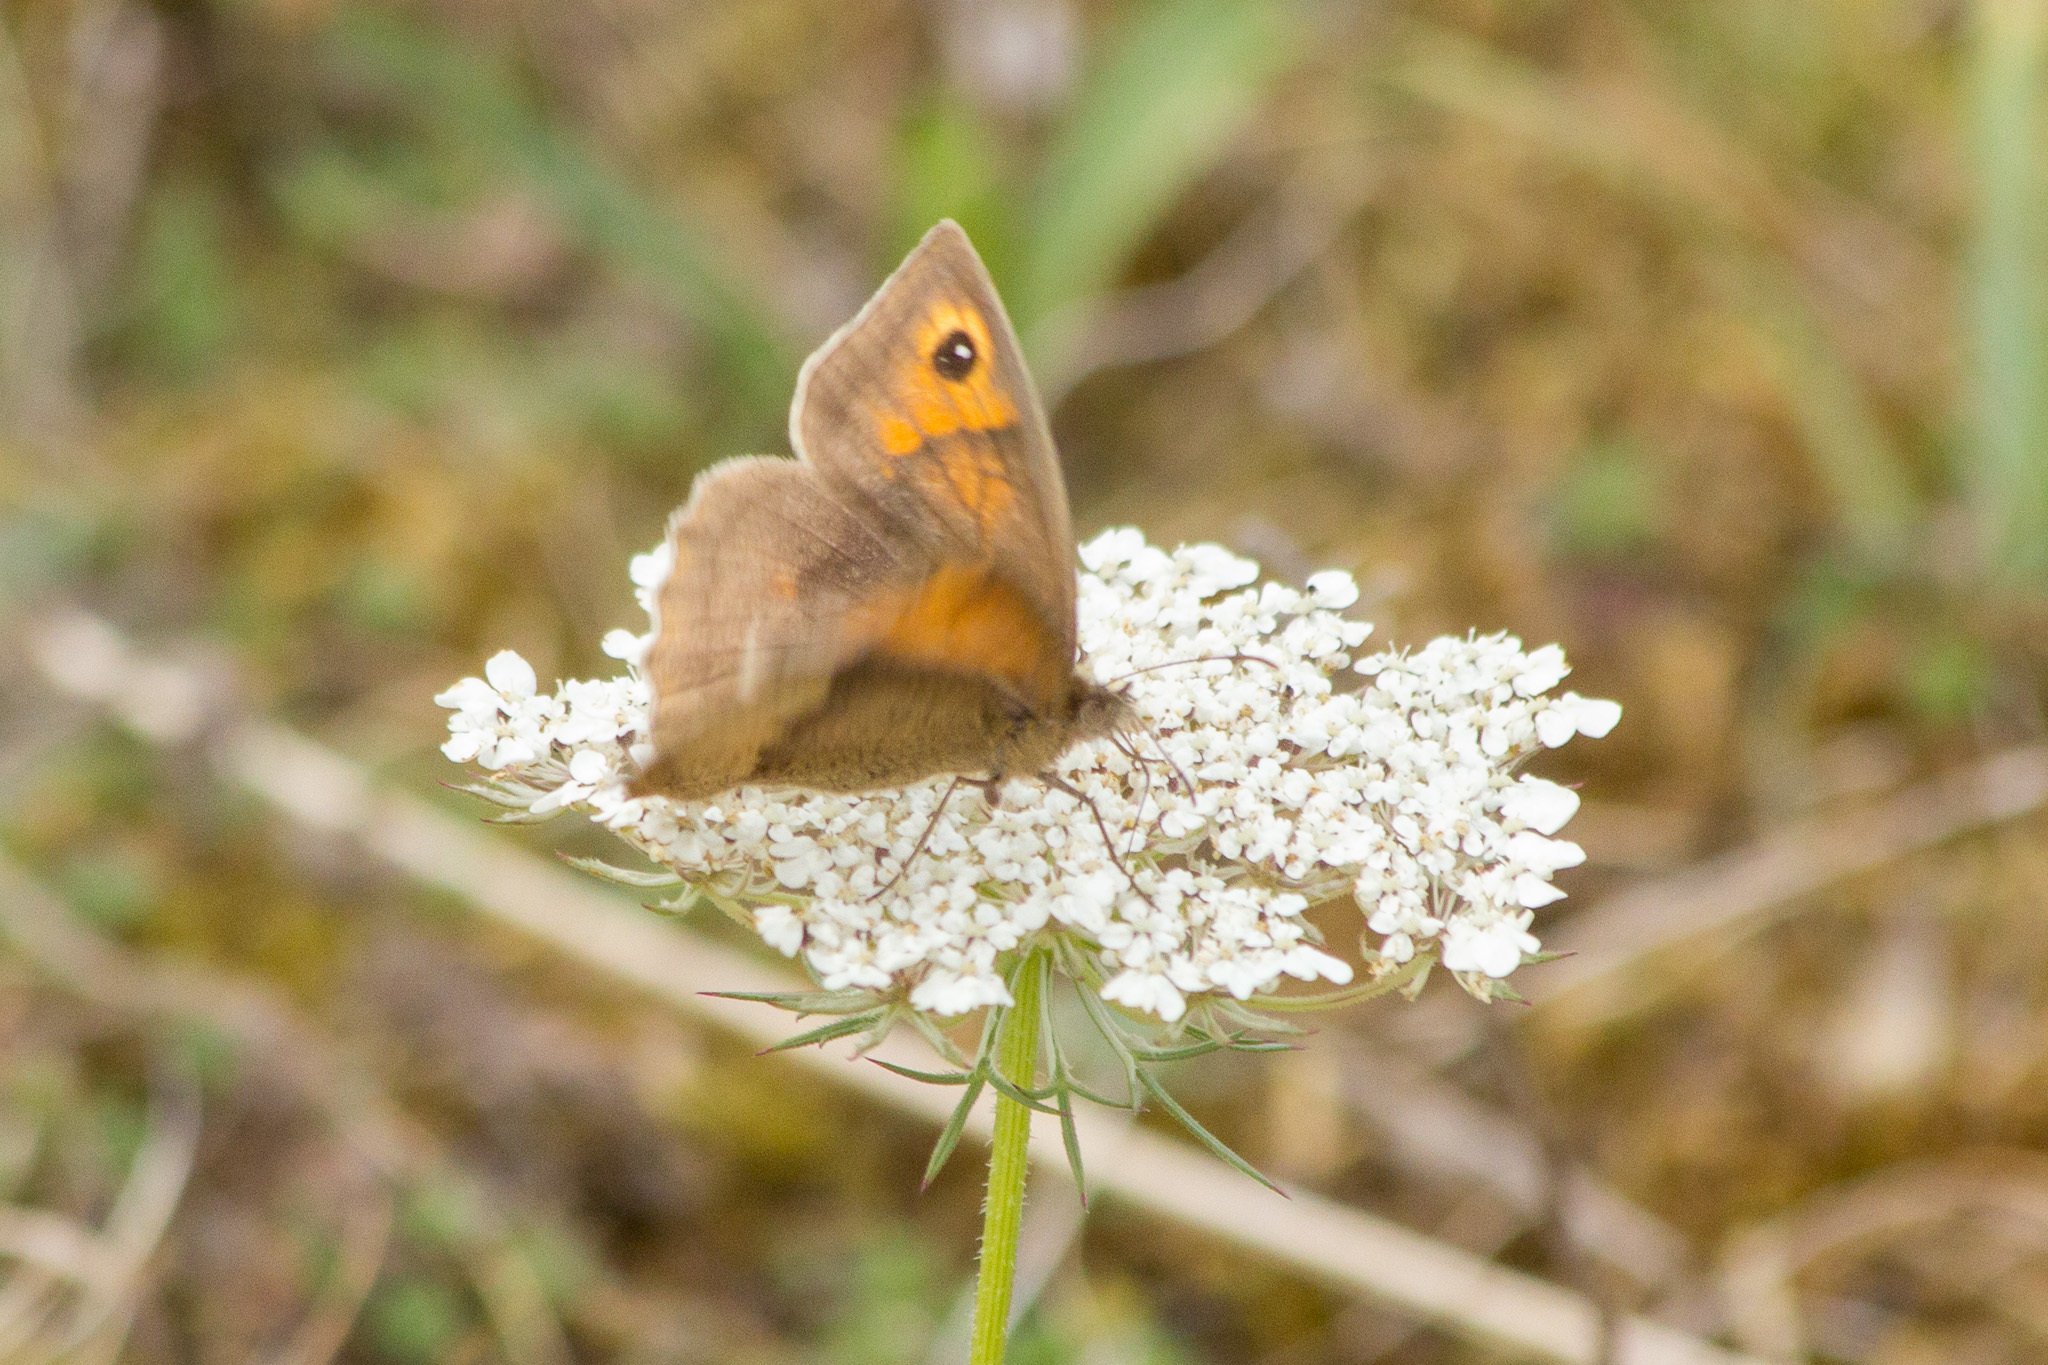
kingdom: Animalia
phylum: Arthropoda
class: Insecta
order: Lepidoptera
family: Nymphalidae
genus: Maniola
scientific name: Maniola jurtina
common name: Meadow brown
